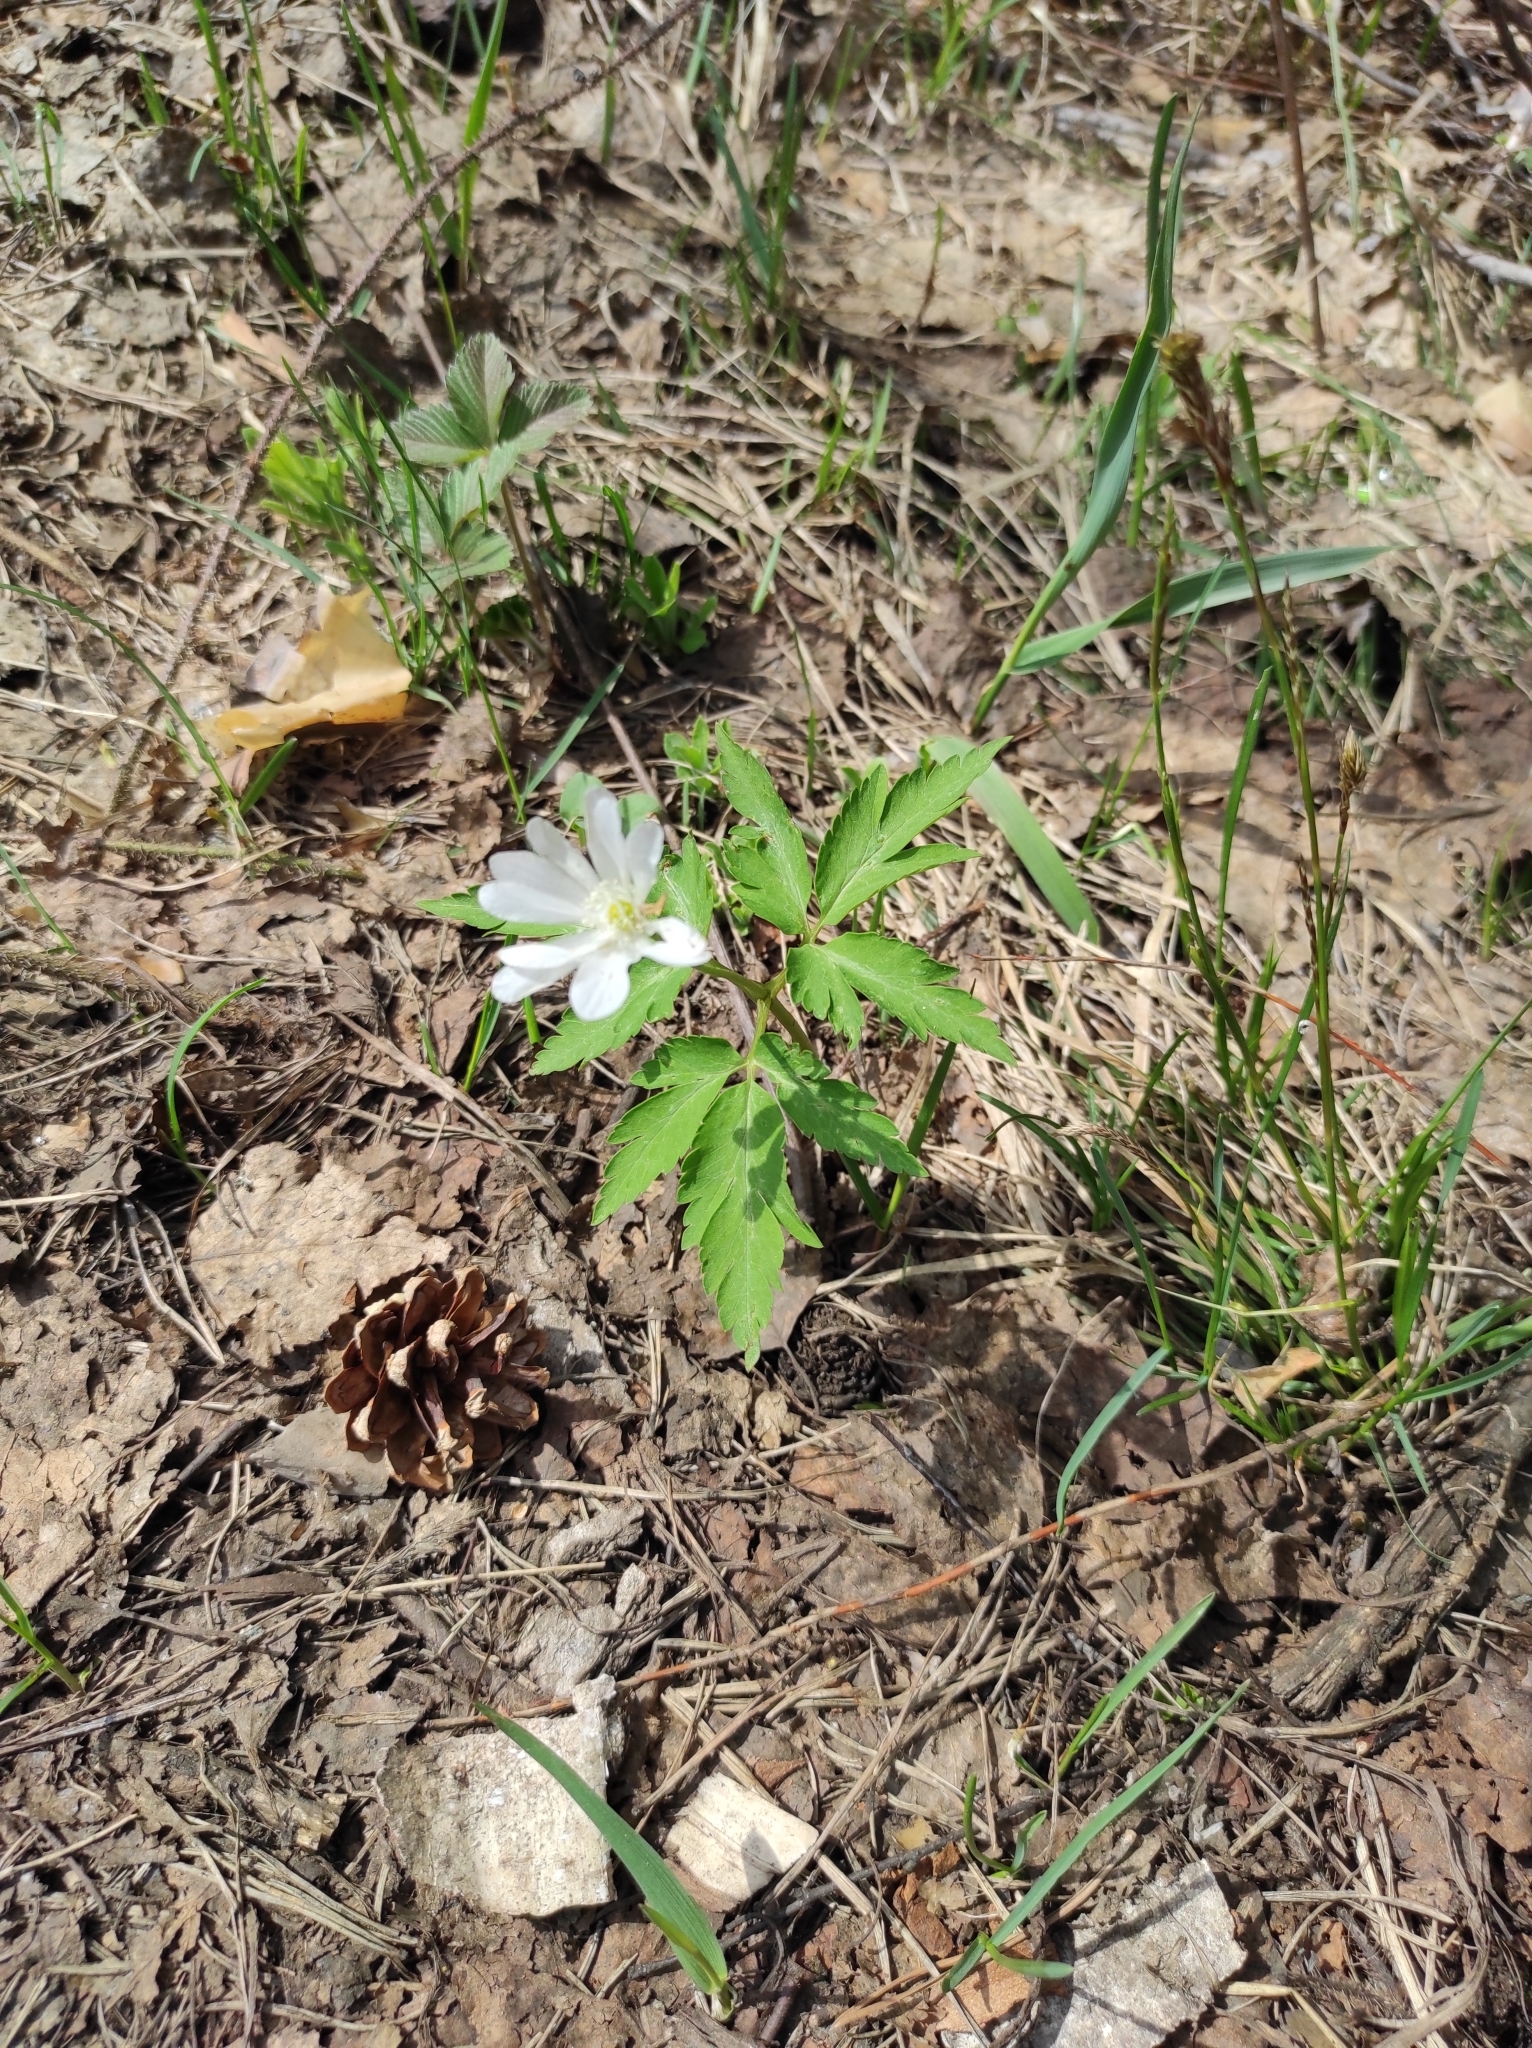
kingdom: Plantae
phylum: Tracheophyta
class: Magnoliopsida
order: Ranunculales
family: Ranunculaceae
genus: Anemone
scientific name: Anemone altaica
